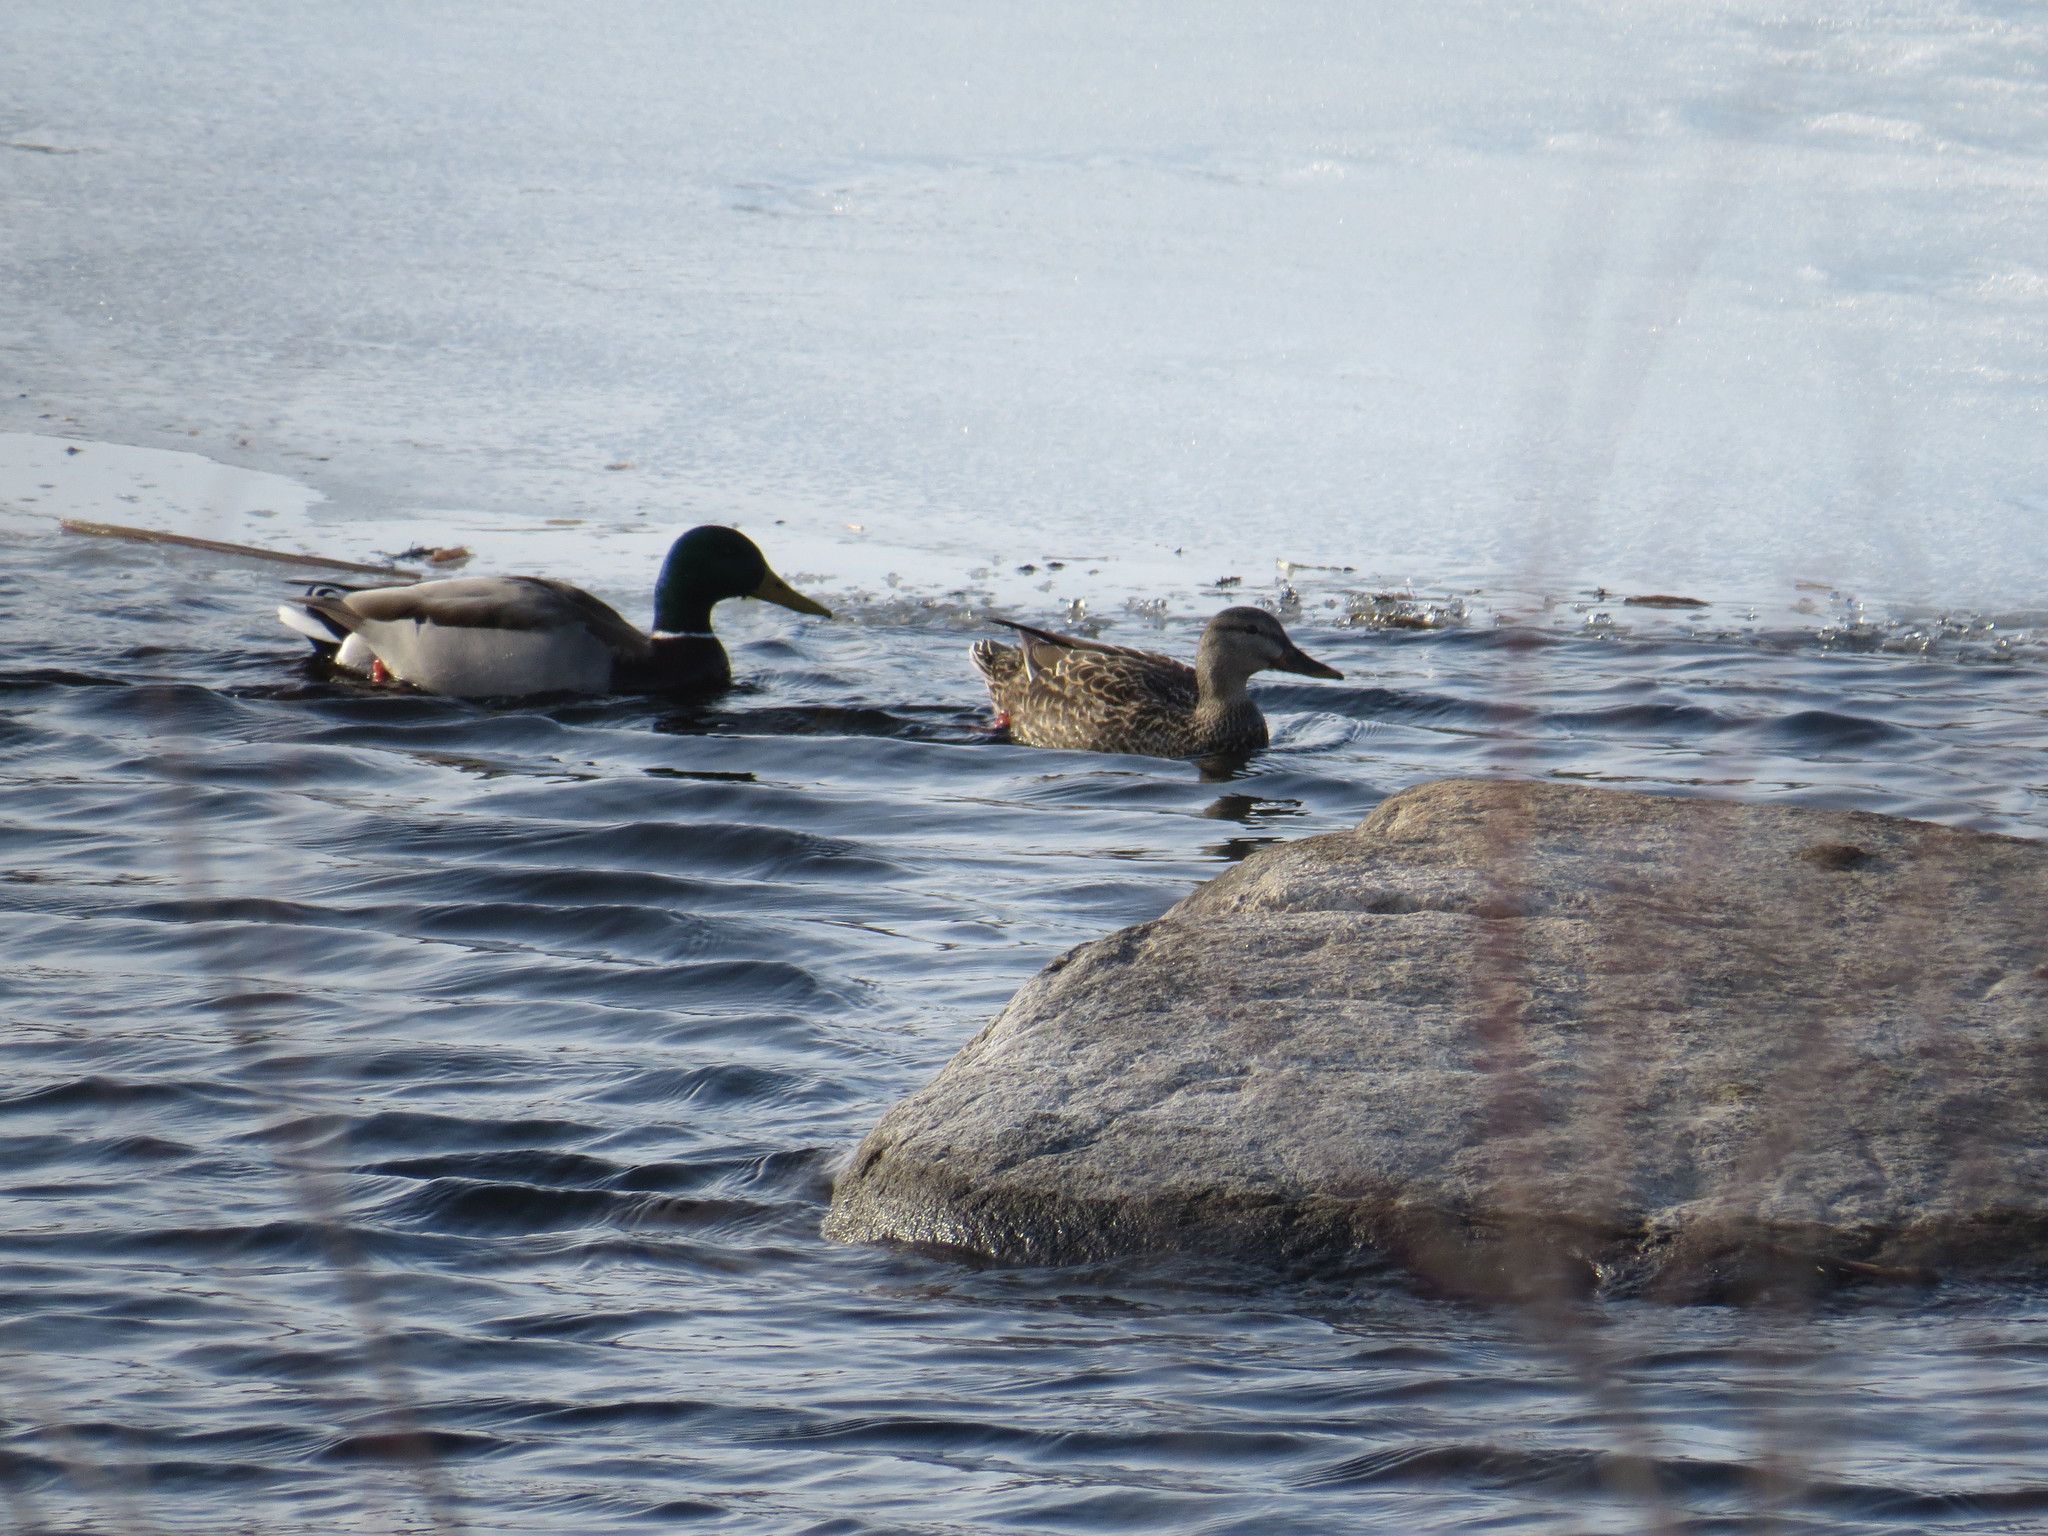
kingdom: Animalia
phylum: Chordata
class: Aves
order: Anseriformes
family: Anatidae
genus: Anas
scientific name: Anas platyrhynchos
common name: Mallard
